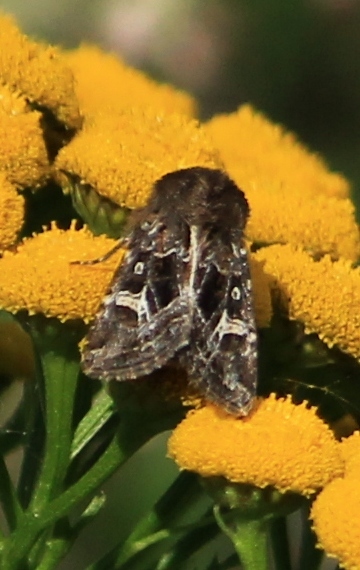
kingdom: Animalia
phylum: Arthropoda
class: Insecta
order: Lepidoptera
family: Noctuidae
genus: Celaena
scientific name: Celaena haworthii
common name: Haworth's minor
